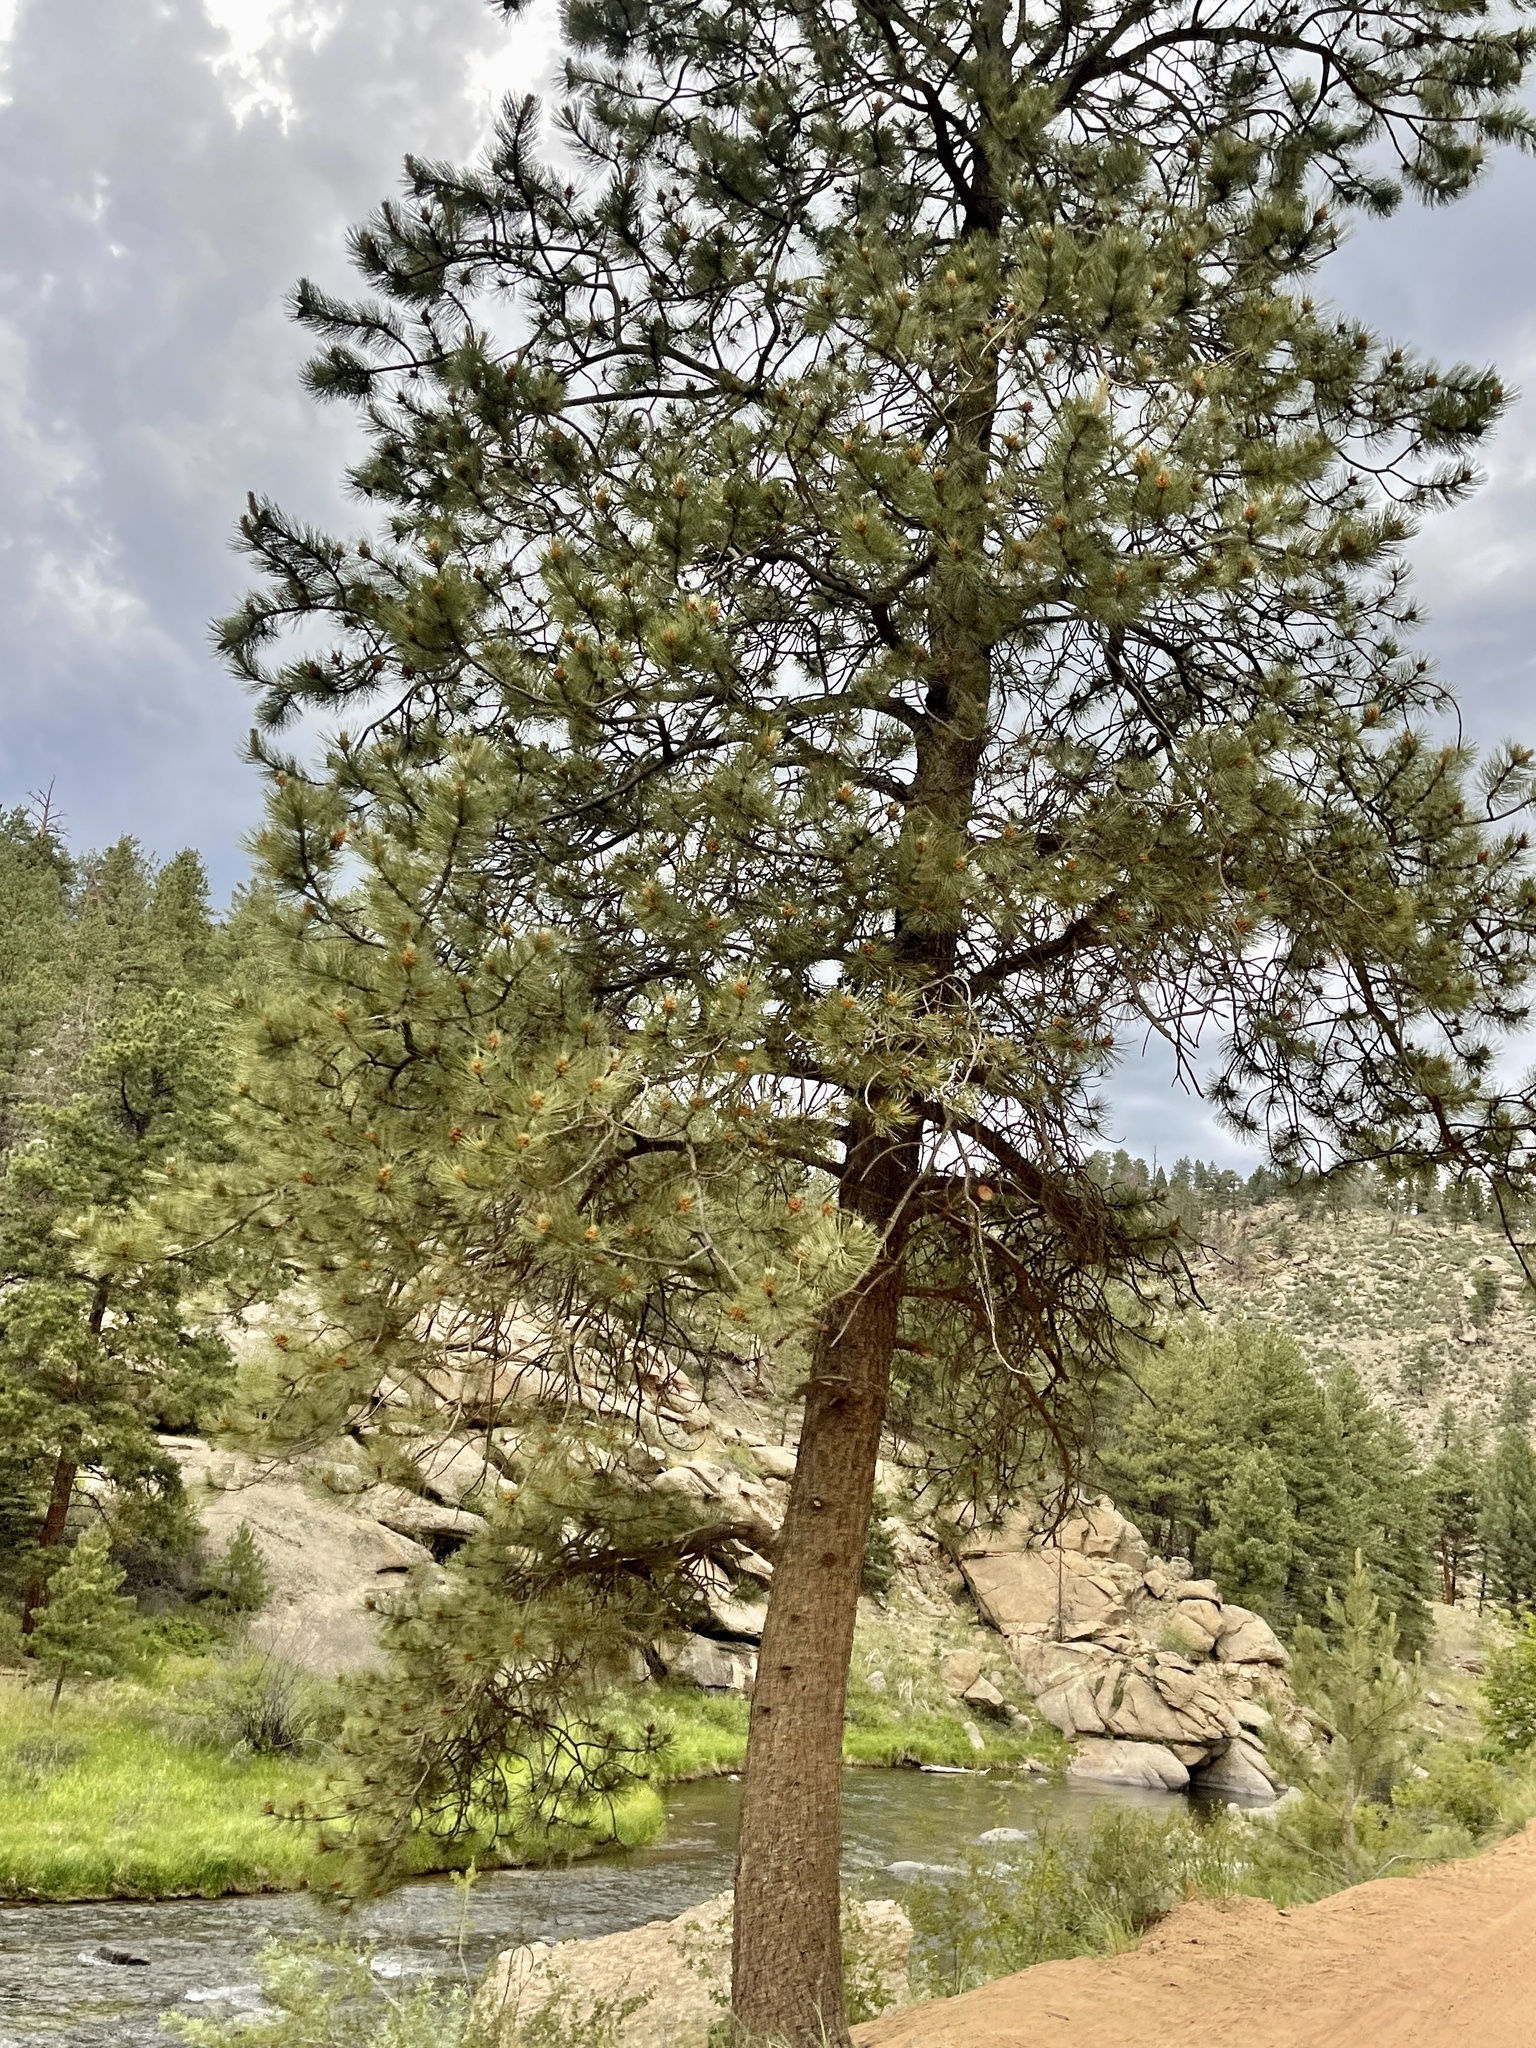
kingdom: Plantae
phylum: Tracheophyta
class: Pinopsida
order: Pinales
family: Pinaceae
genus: Pinus
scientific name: Pinus ponderosa
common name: Western yellow-pine
